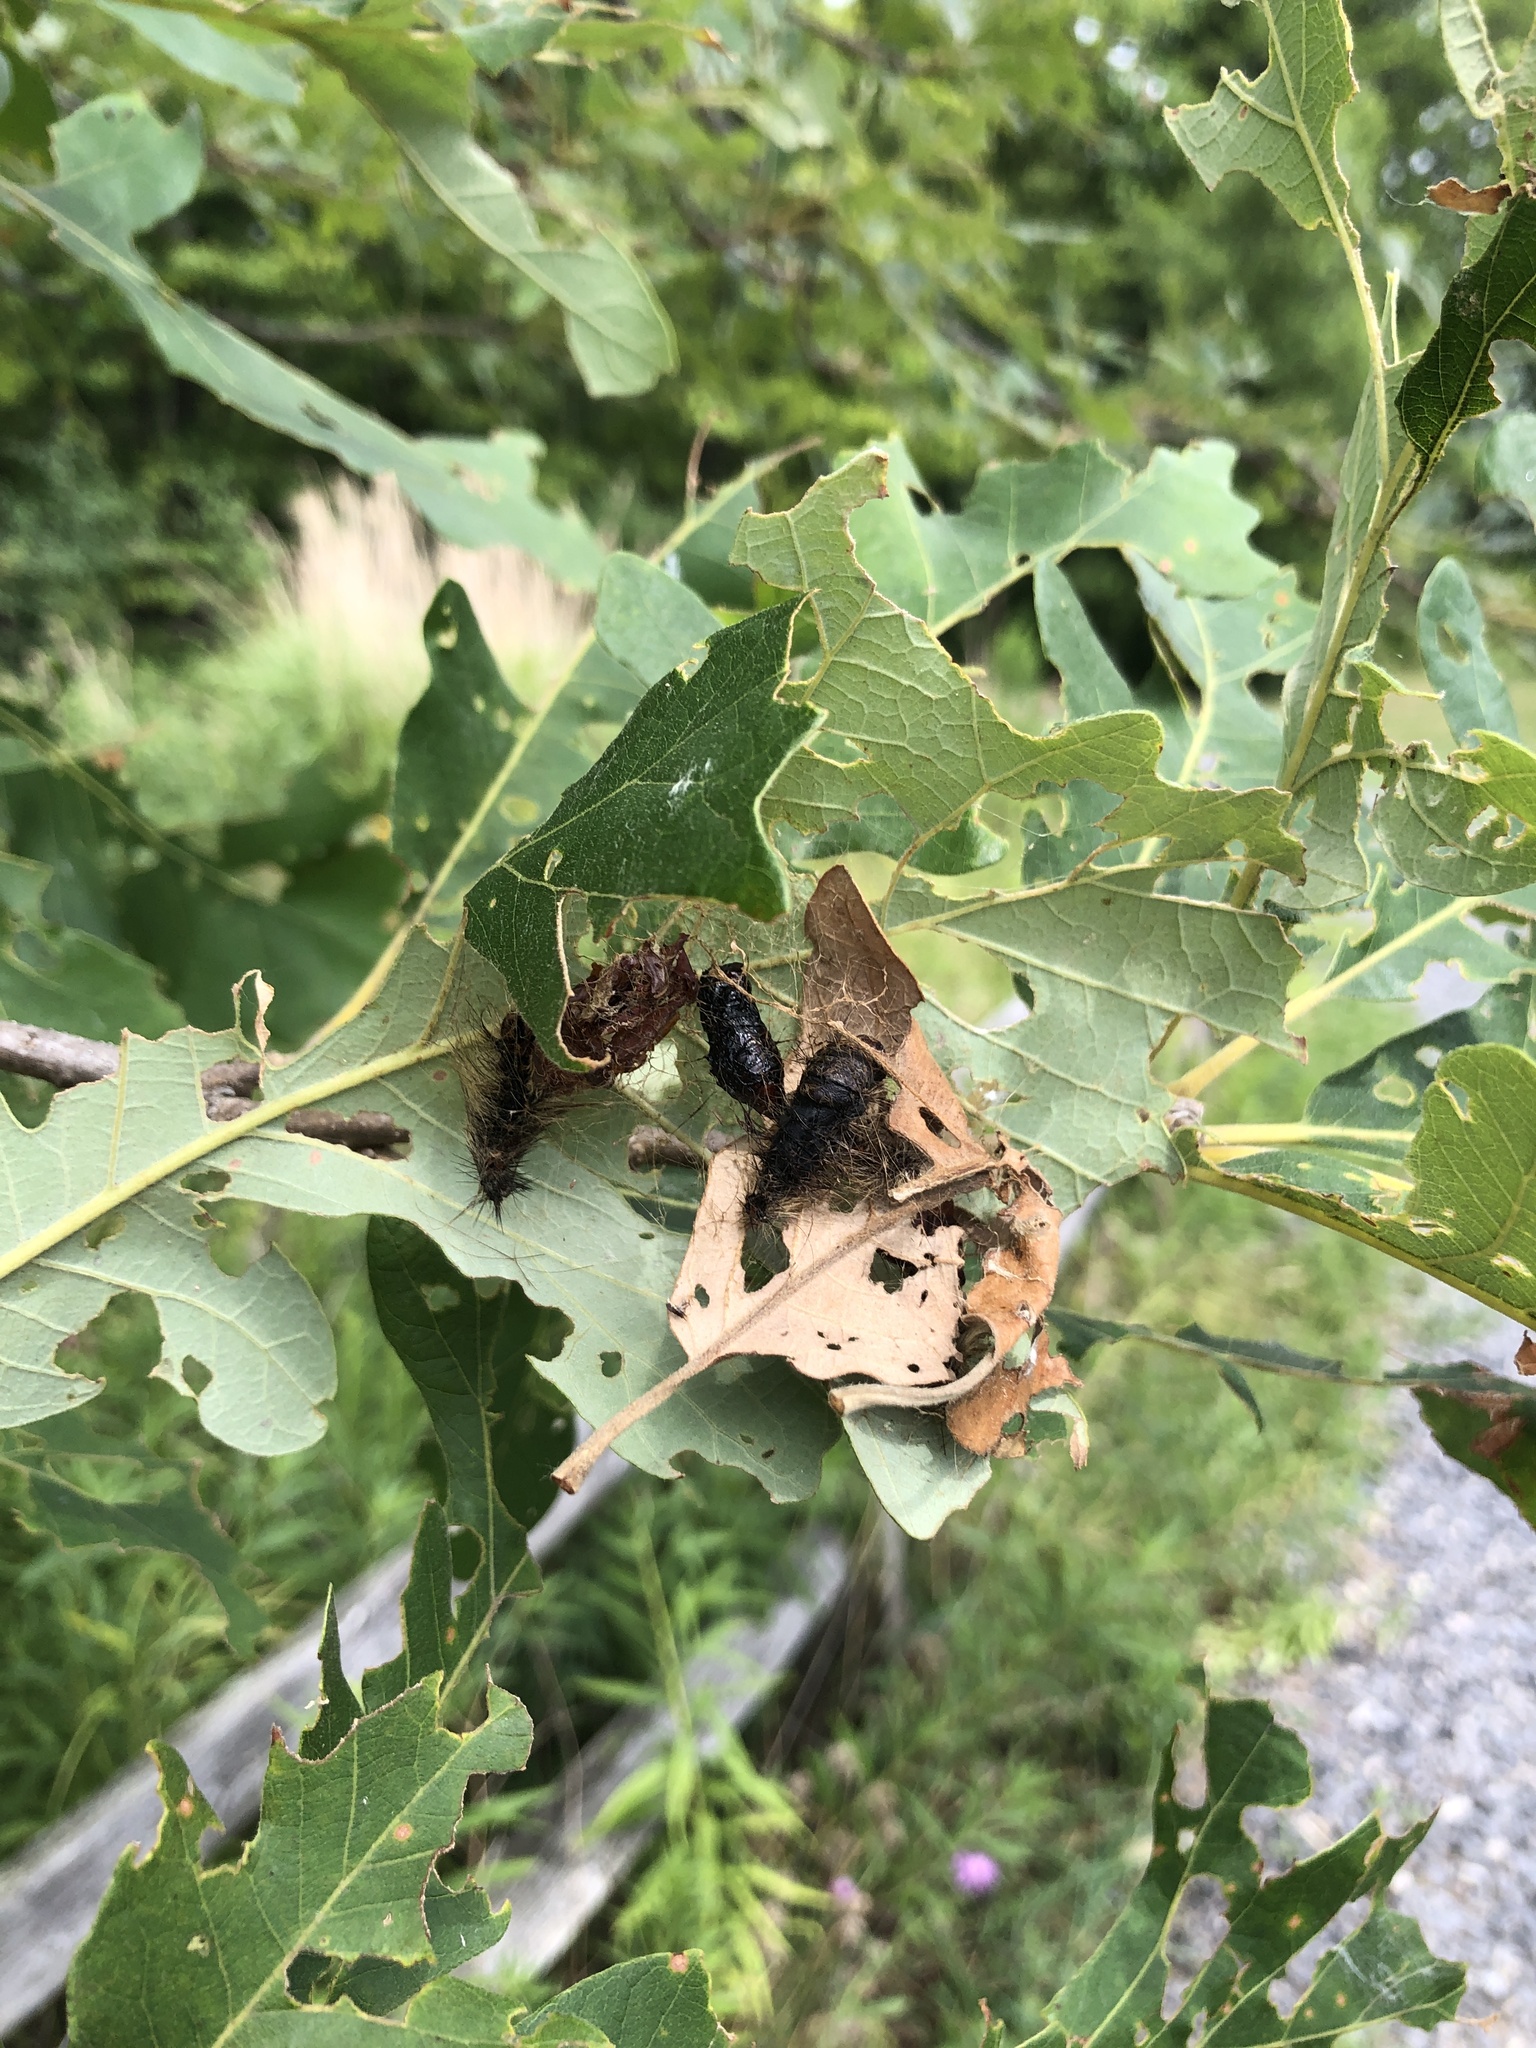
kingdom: Animalia
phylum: Arthropoda
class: Insecta
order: Lepidoptera
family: Erebidae
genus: Lymantria
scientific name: Lymantria dispar
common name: Gypsy moth
